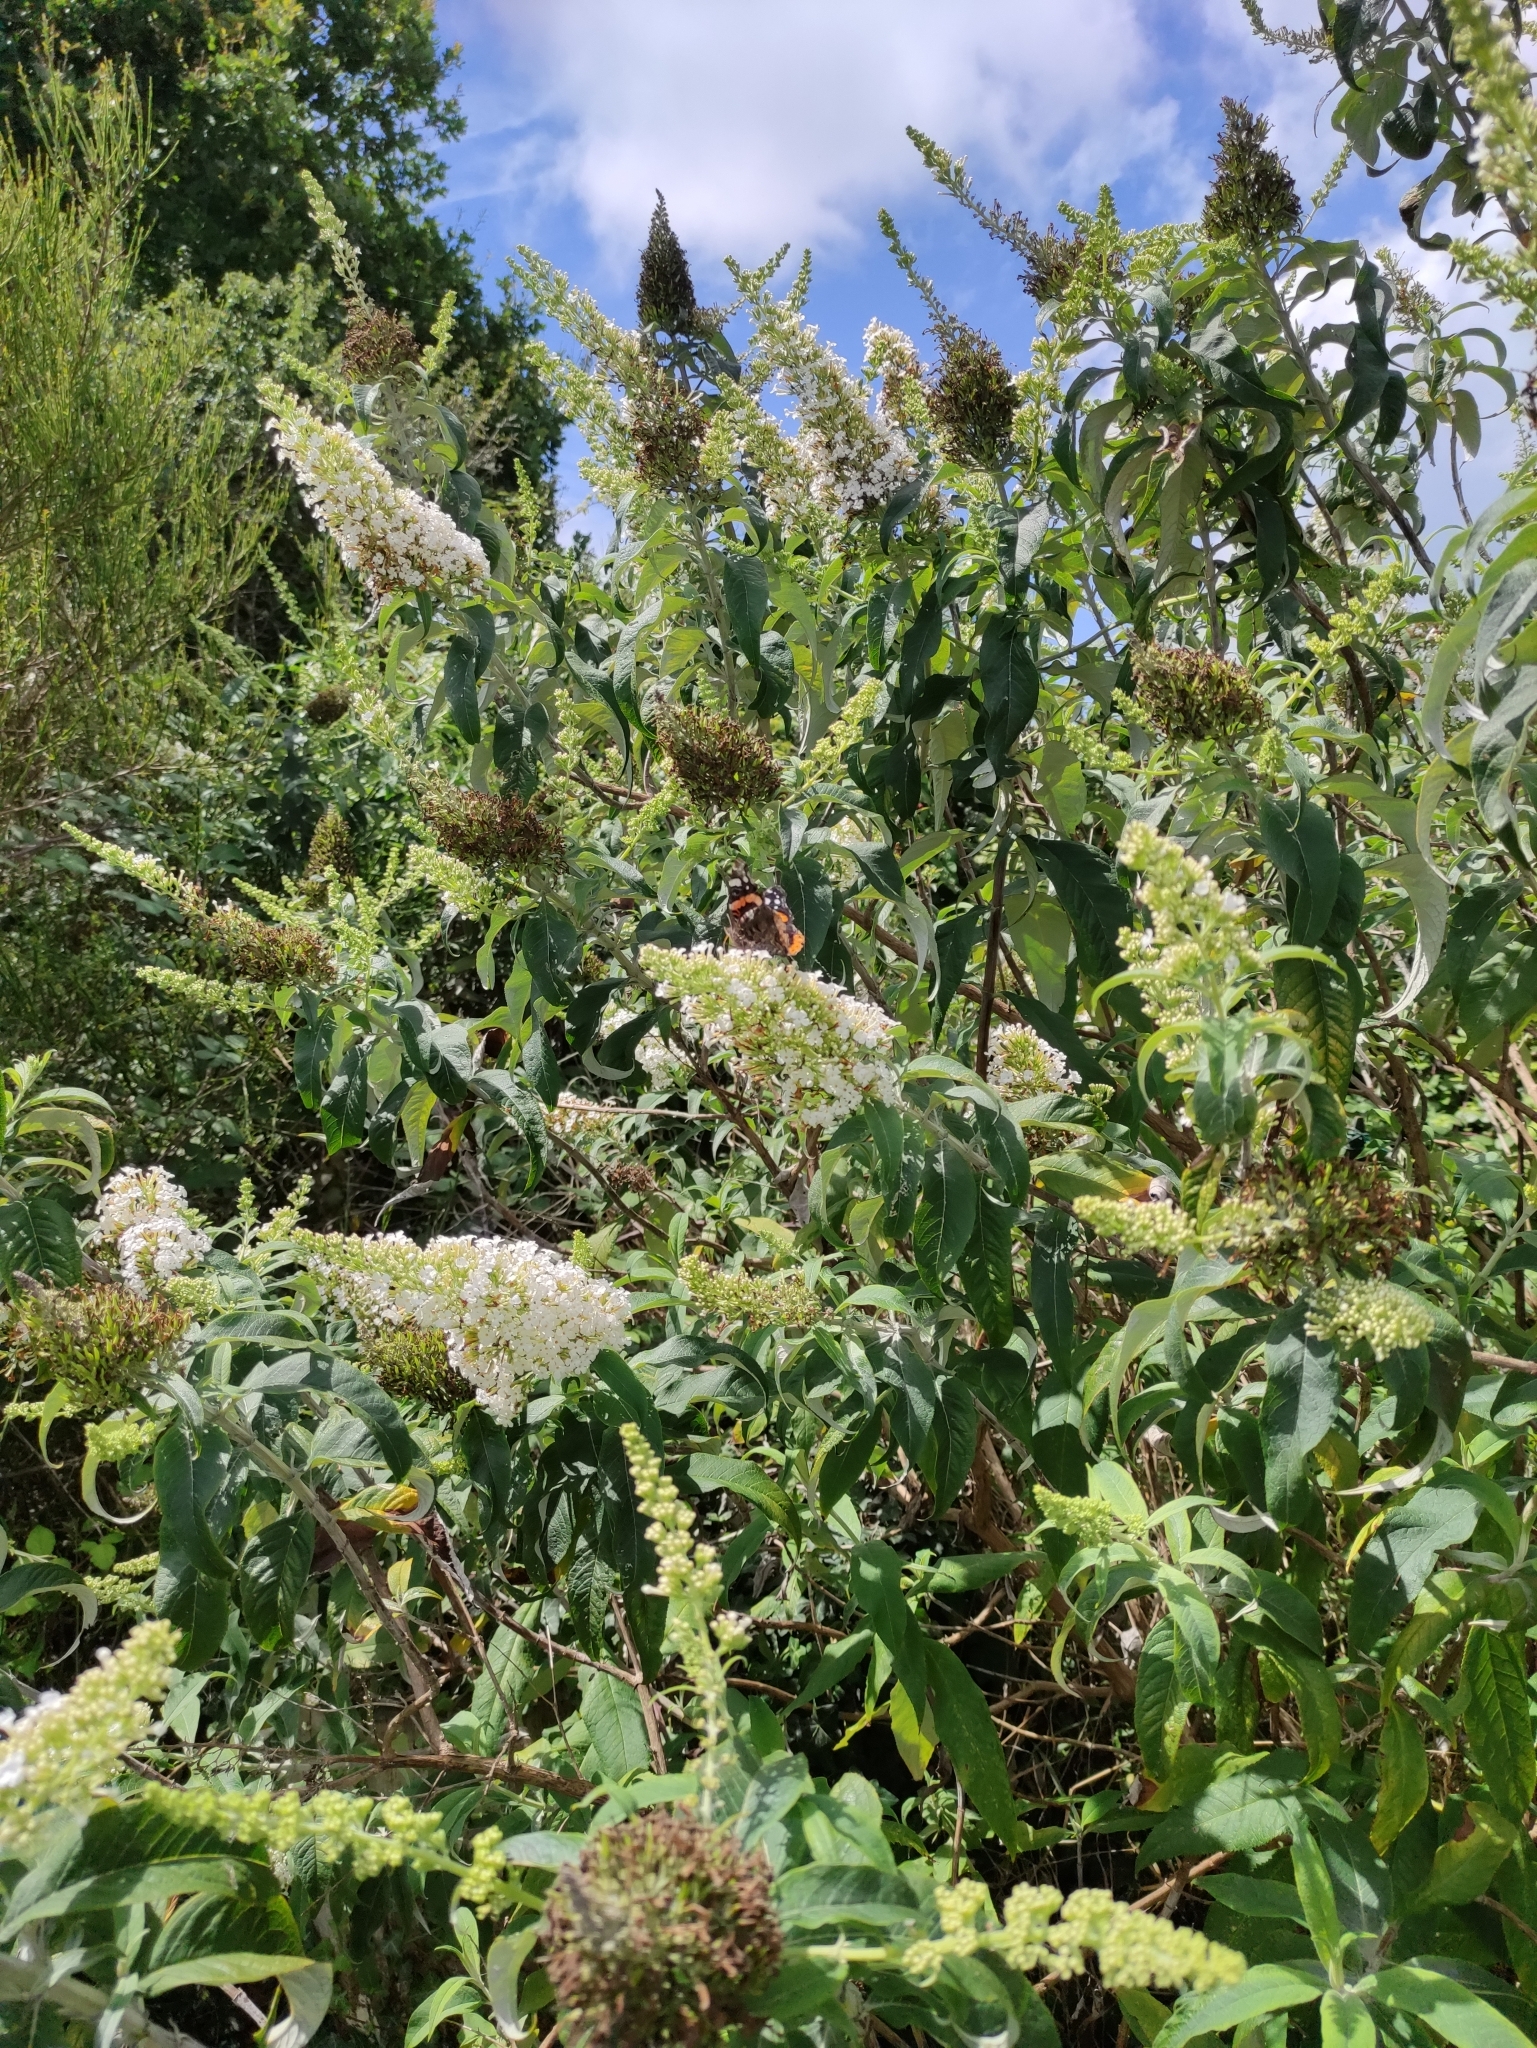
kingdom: Animalia
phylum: Arthropoda
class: Insecta
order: Lepidoptera
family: Nymphalidae
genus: Vanessa
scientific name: Vanessa atalanta
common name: Red admiral
